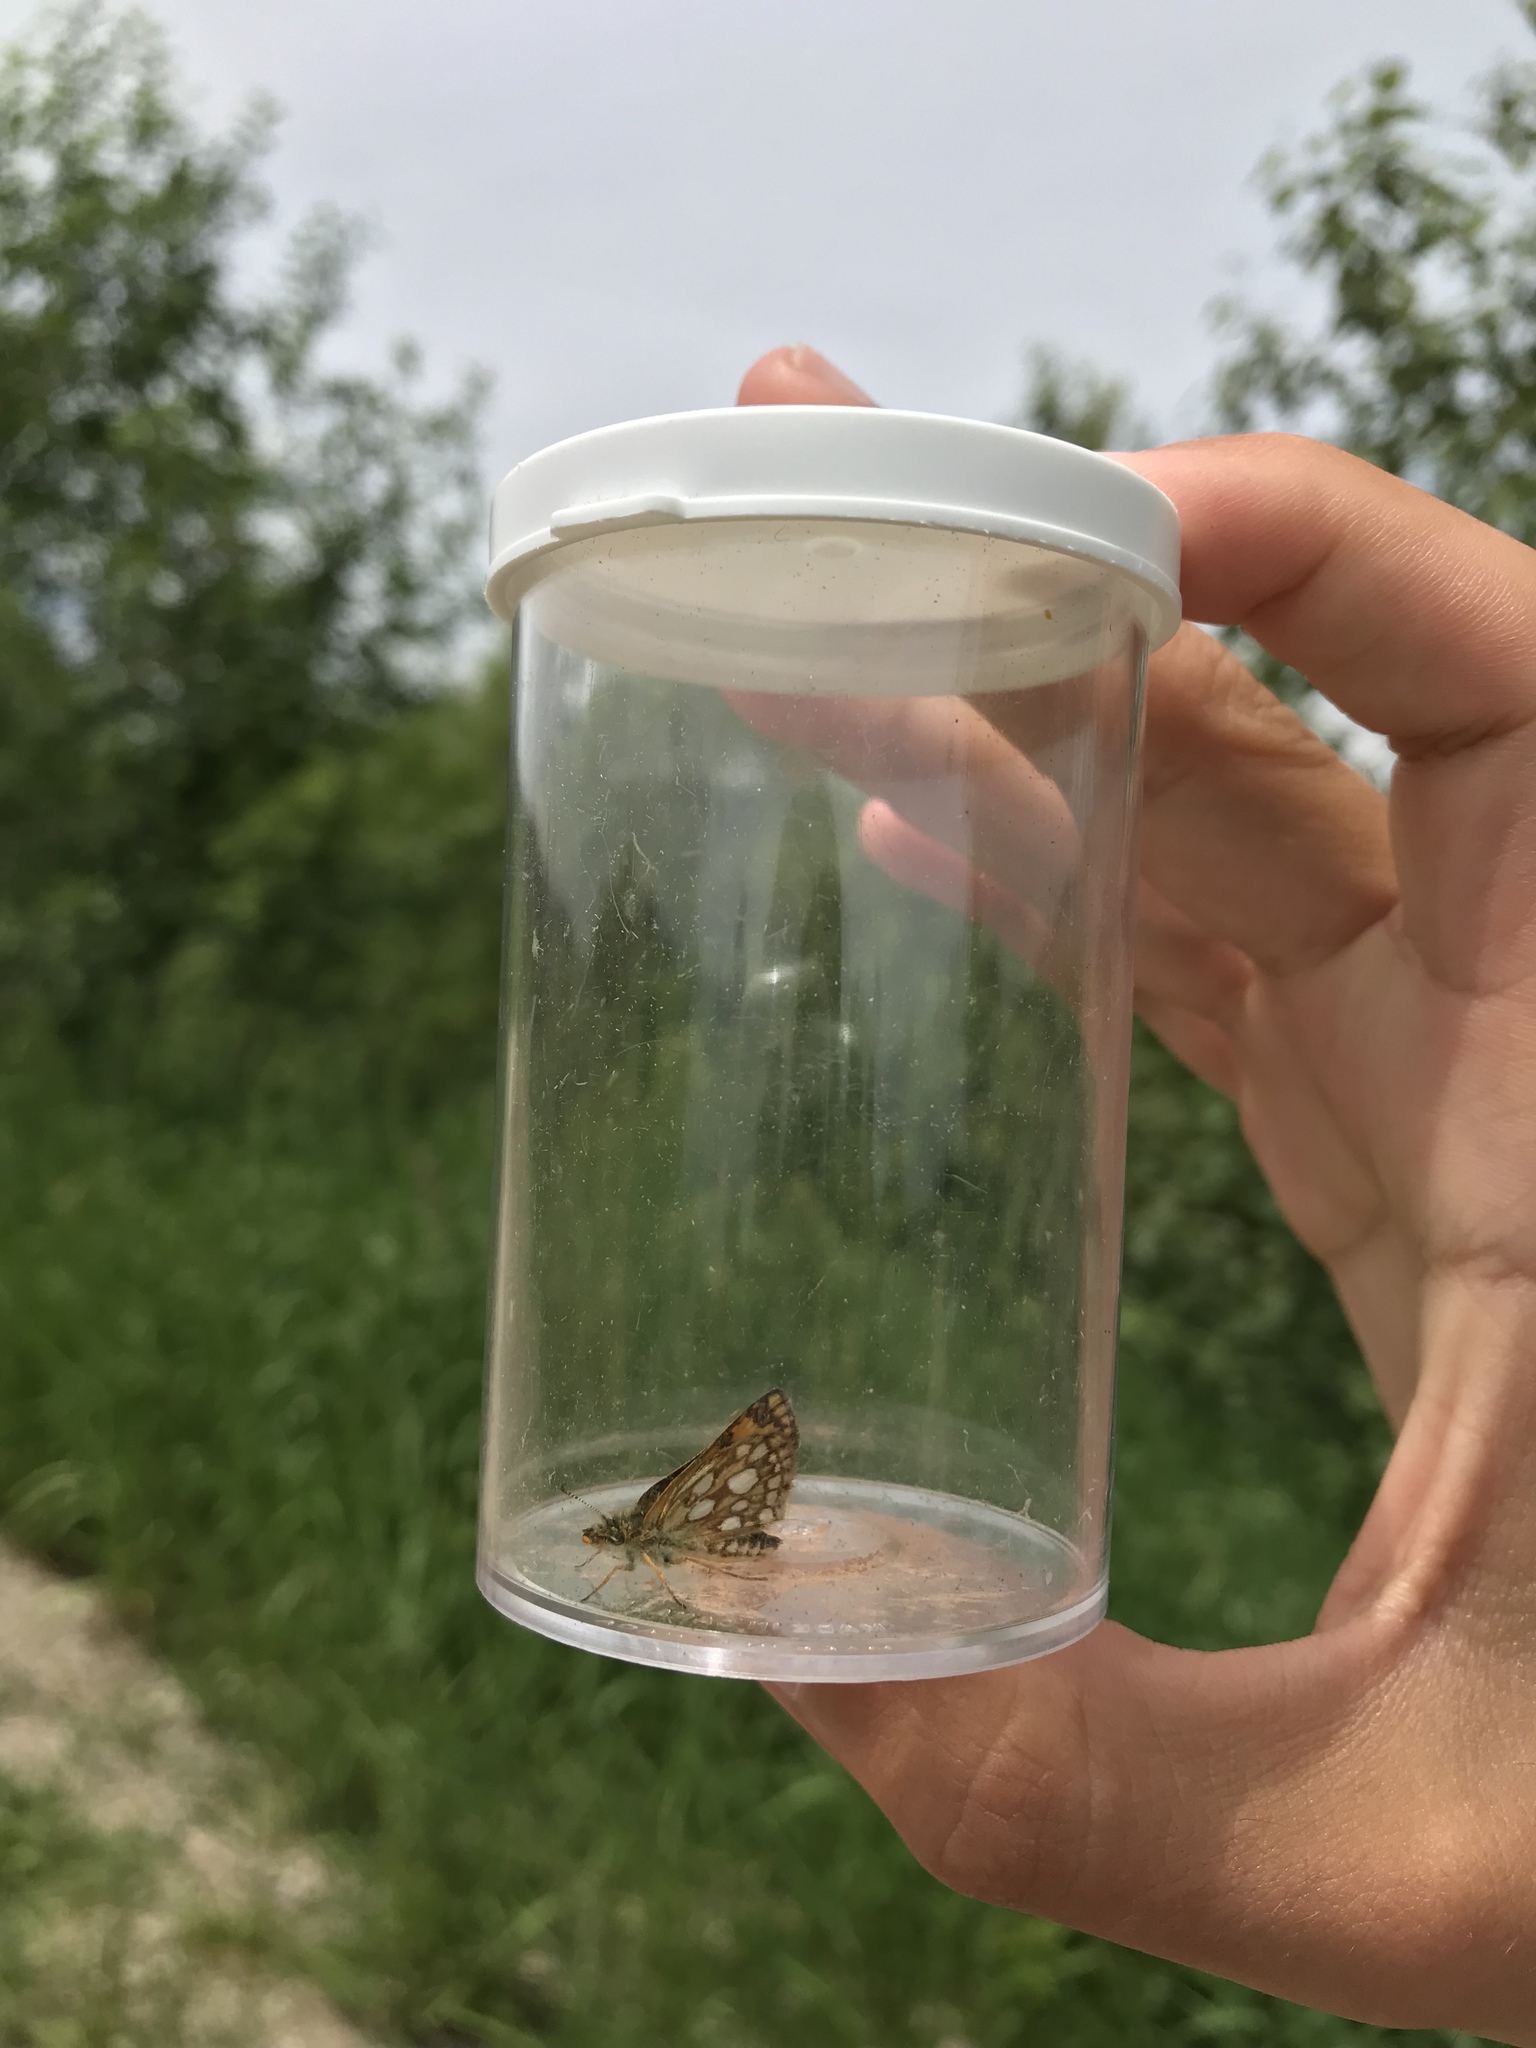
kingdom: Animalia
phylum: Arthropoda
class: Insecta
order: Lepidoptera
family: Hesperiidae
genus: Carterocephalus
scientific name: Carterocephalus mandan
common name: Arctic skipperling
